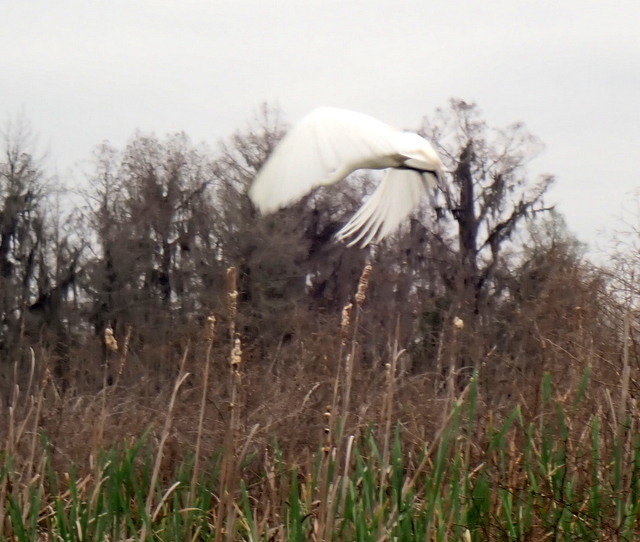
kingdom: Animalia
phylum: Chordata
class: Aves
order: Pelecaniformes
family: Ardeidae
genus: Ardea
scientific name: Ardea alba
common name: Great egret
